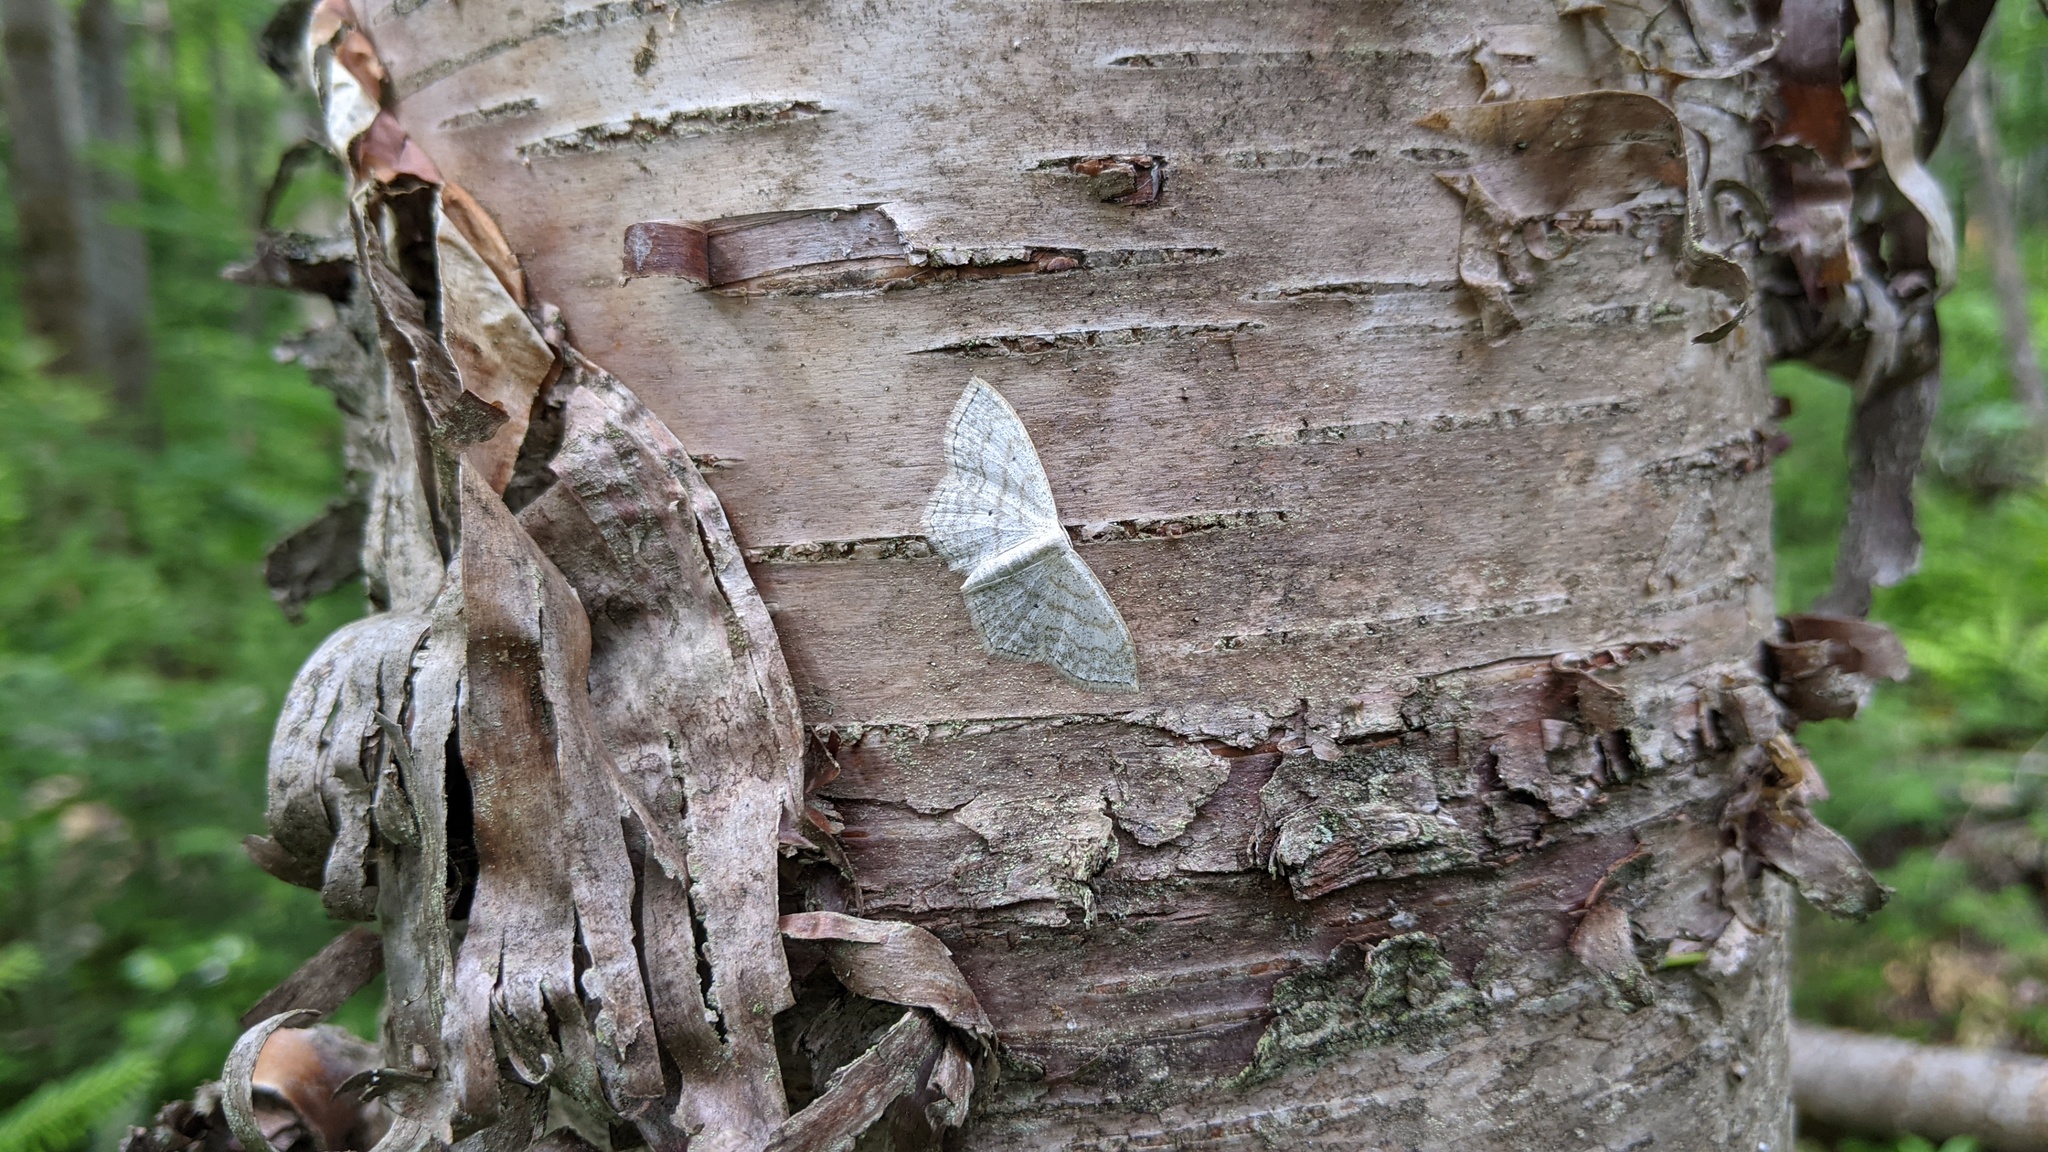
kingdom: Animalia
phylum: Arthropoda
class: Insecta
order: Lepidoptera
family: Geometridae
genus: Scopula
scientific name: Scopula limboundata
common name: Large lace border
